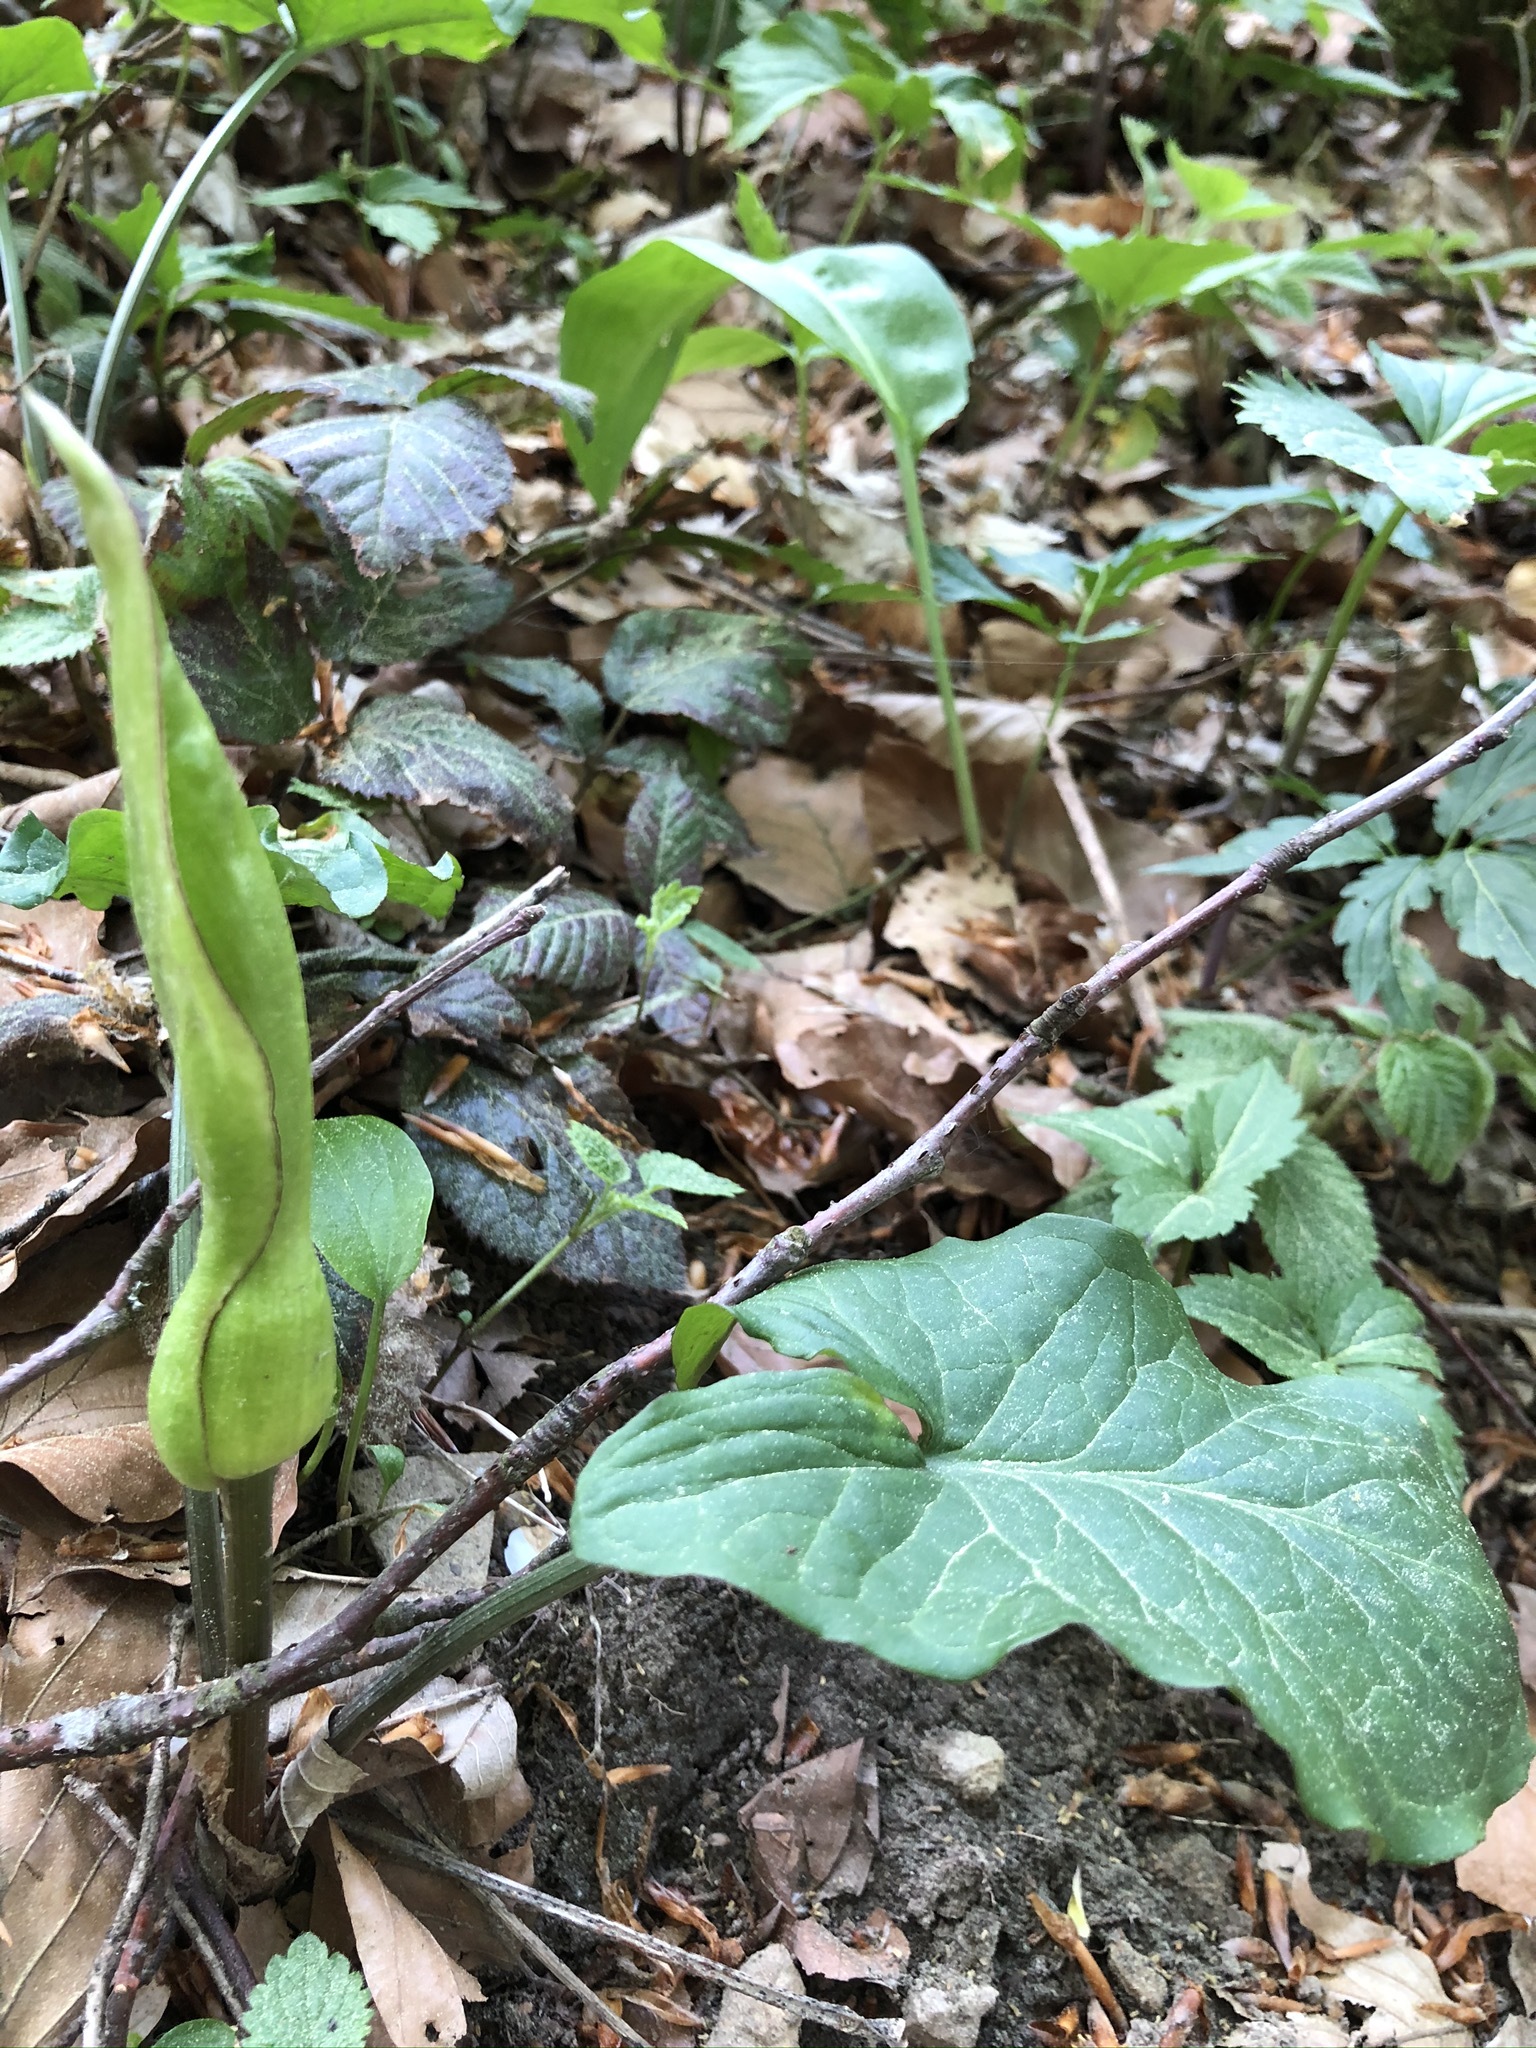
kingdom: Plantae
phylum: Tracheophyta
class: Liliopsida
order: Alismatales
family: Araceae
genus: Arum
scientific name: Arum maculatum
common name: Lords-and-ladies
